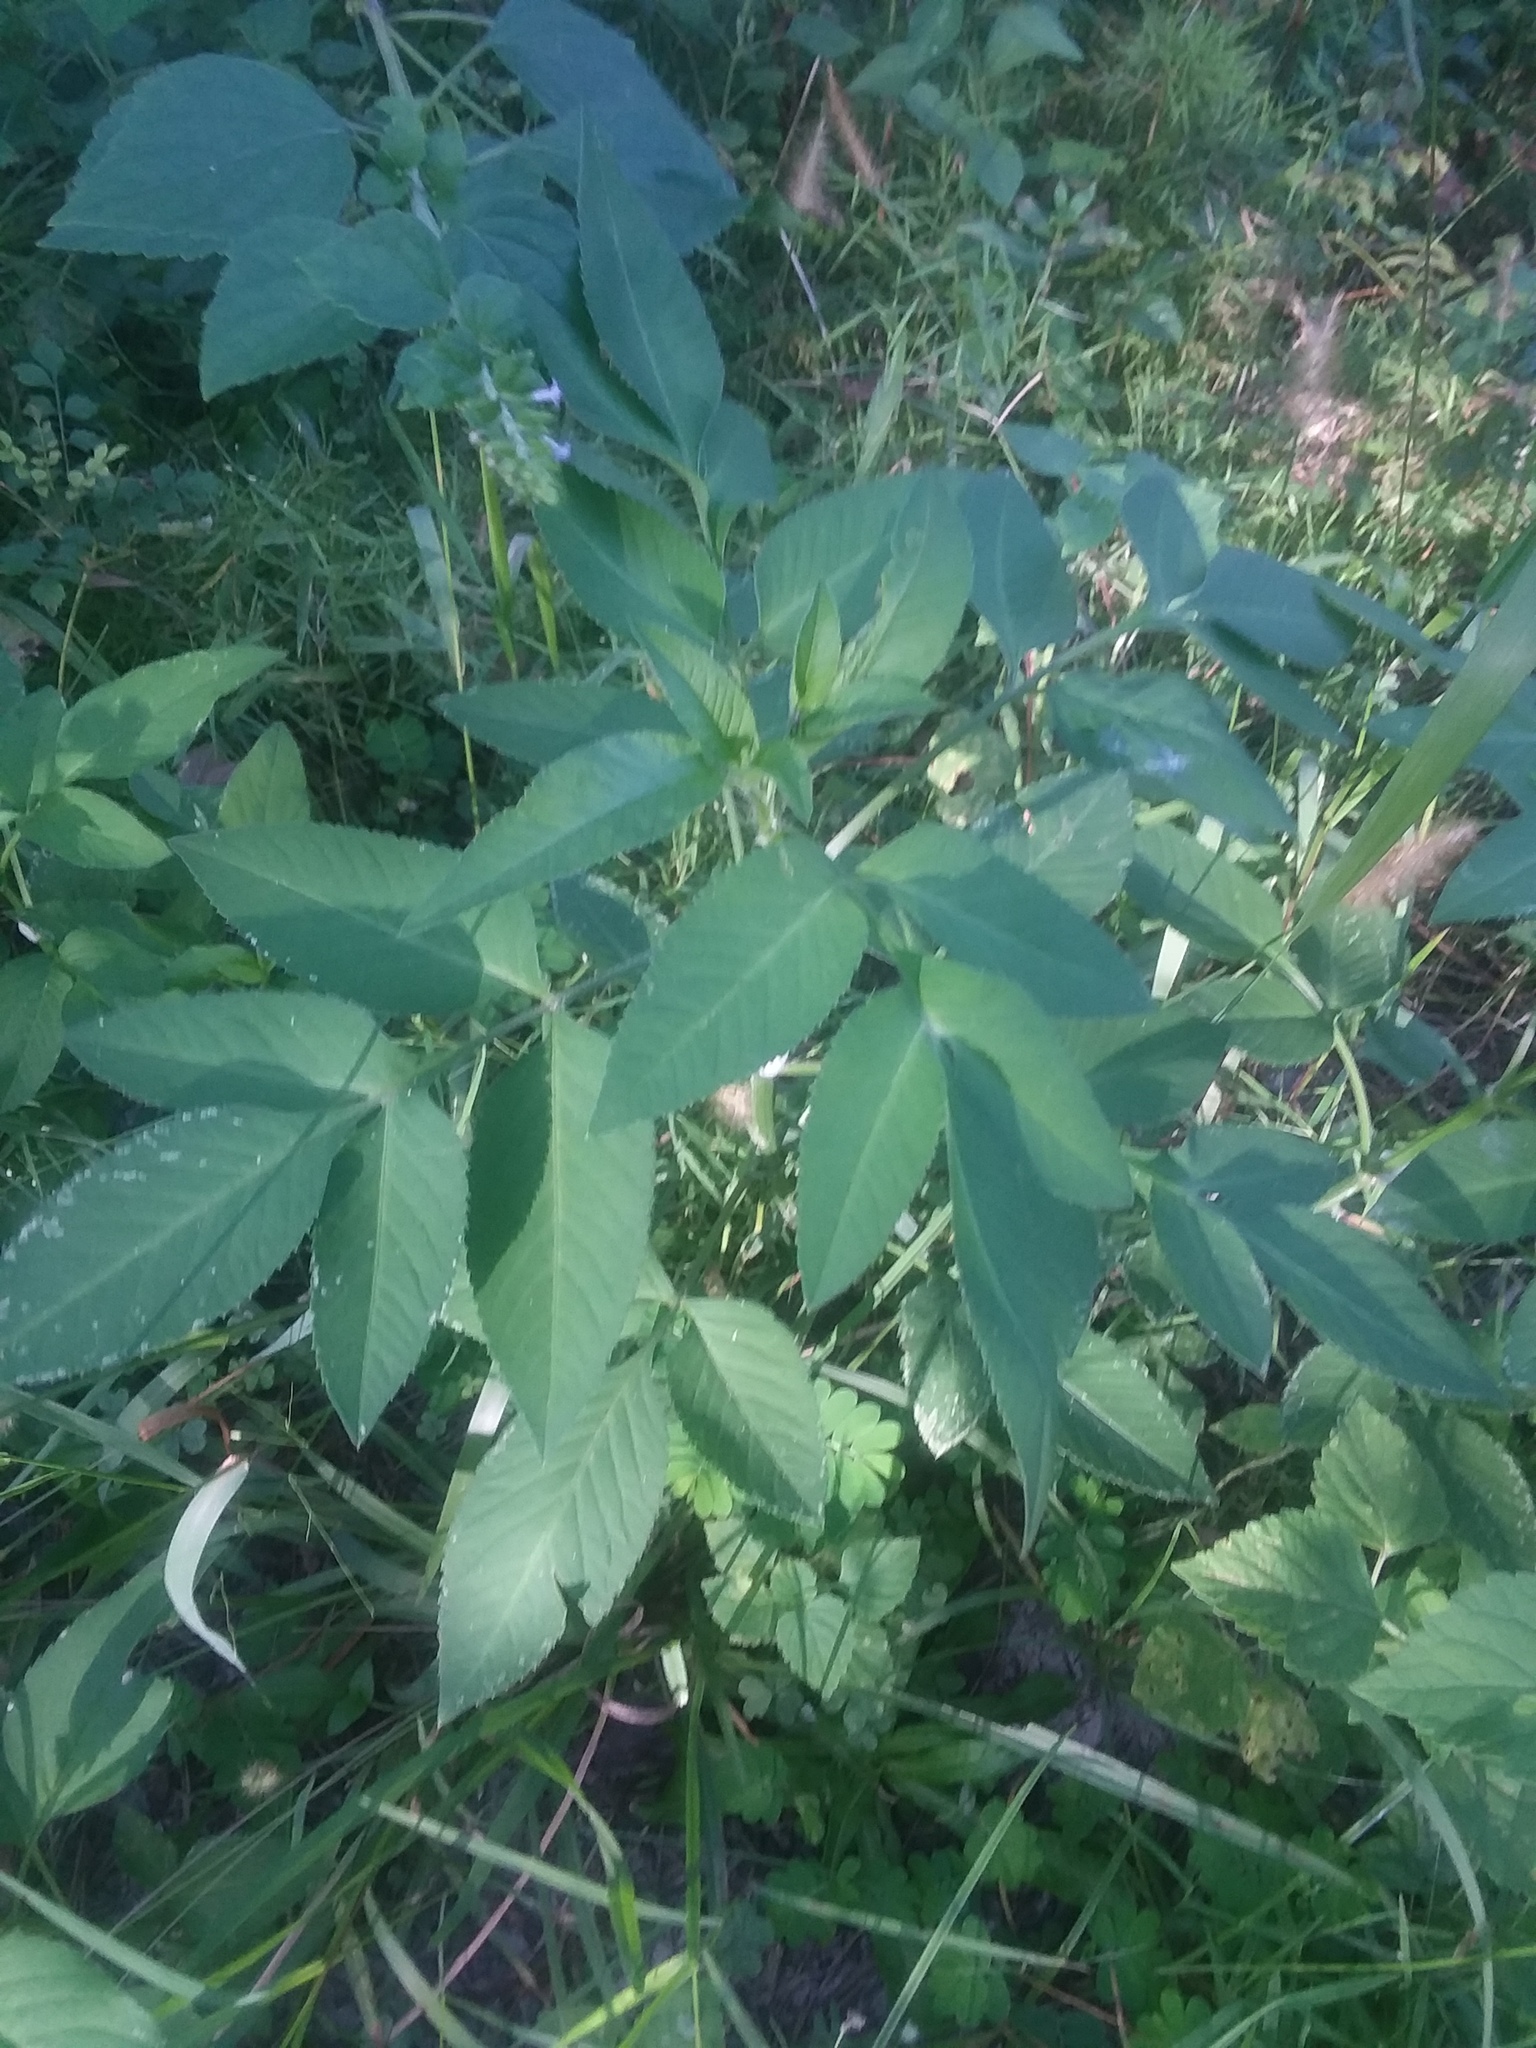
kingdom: Plantae
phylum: Tracheophyta
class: Magnoliopsida
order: Asterales
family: Asteraceae
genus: Bidens
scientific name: Bidens alba
